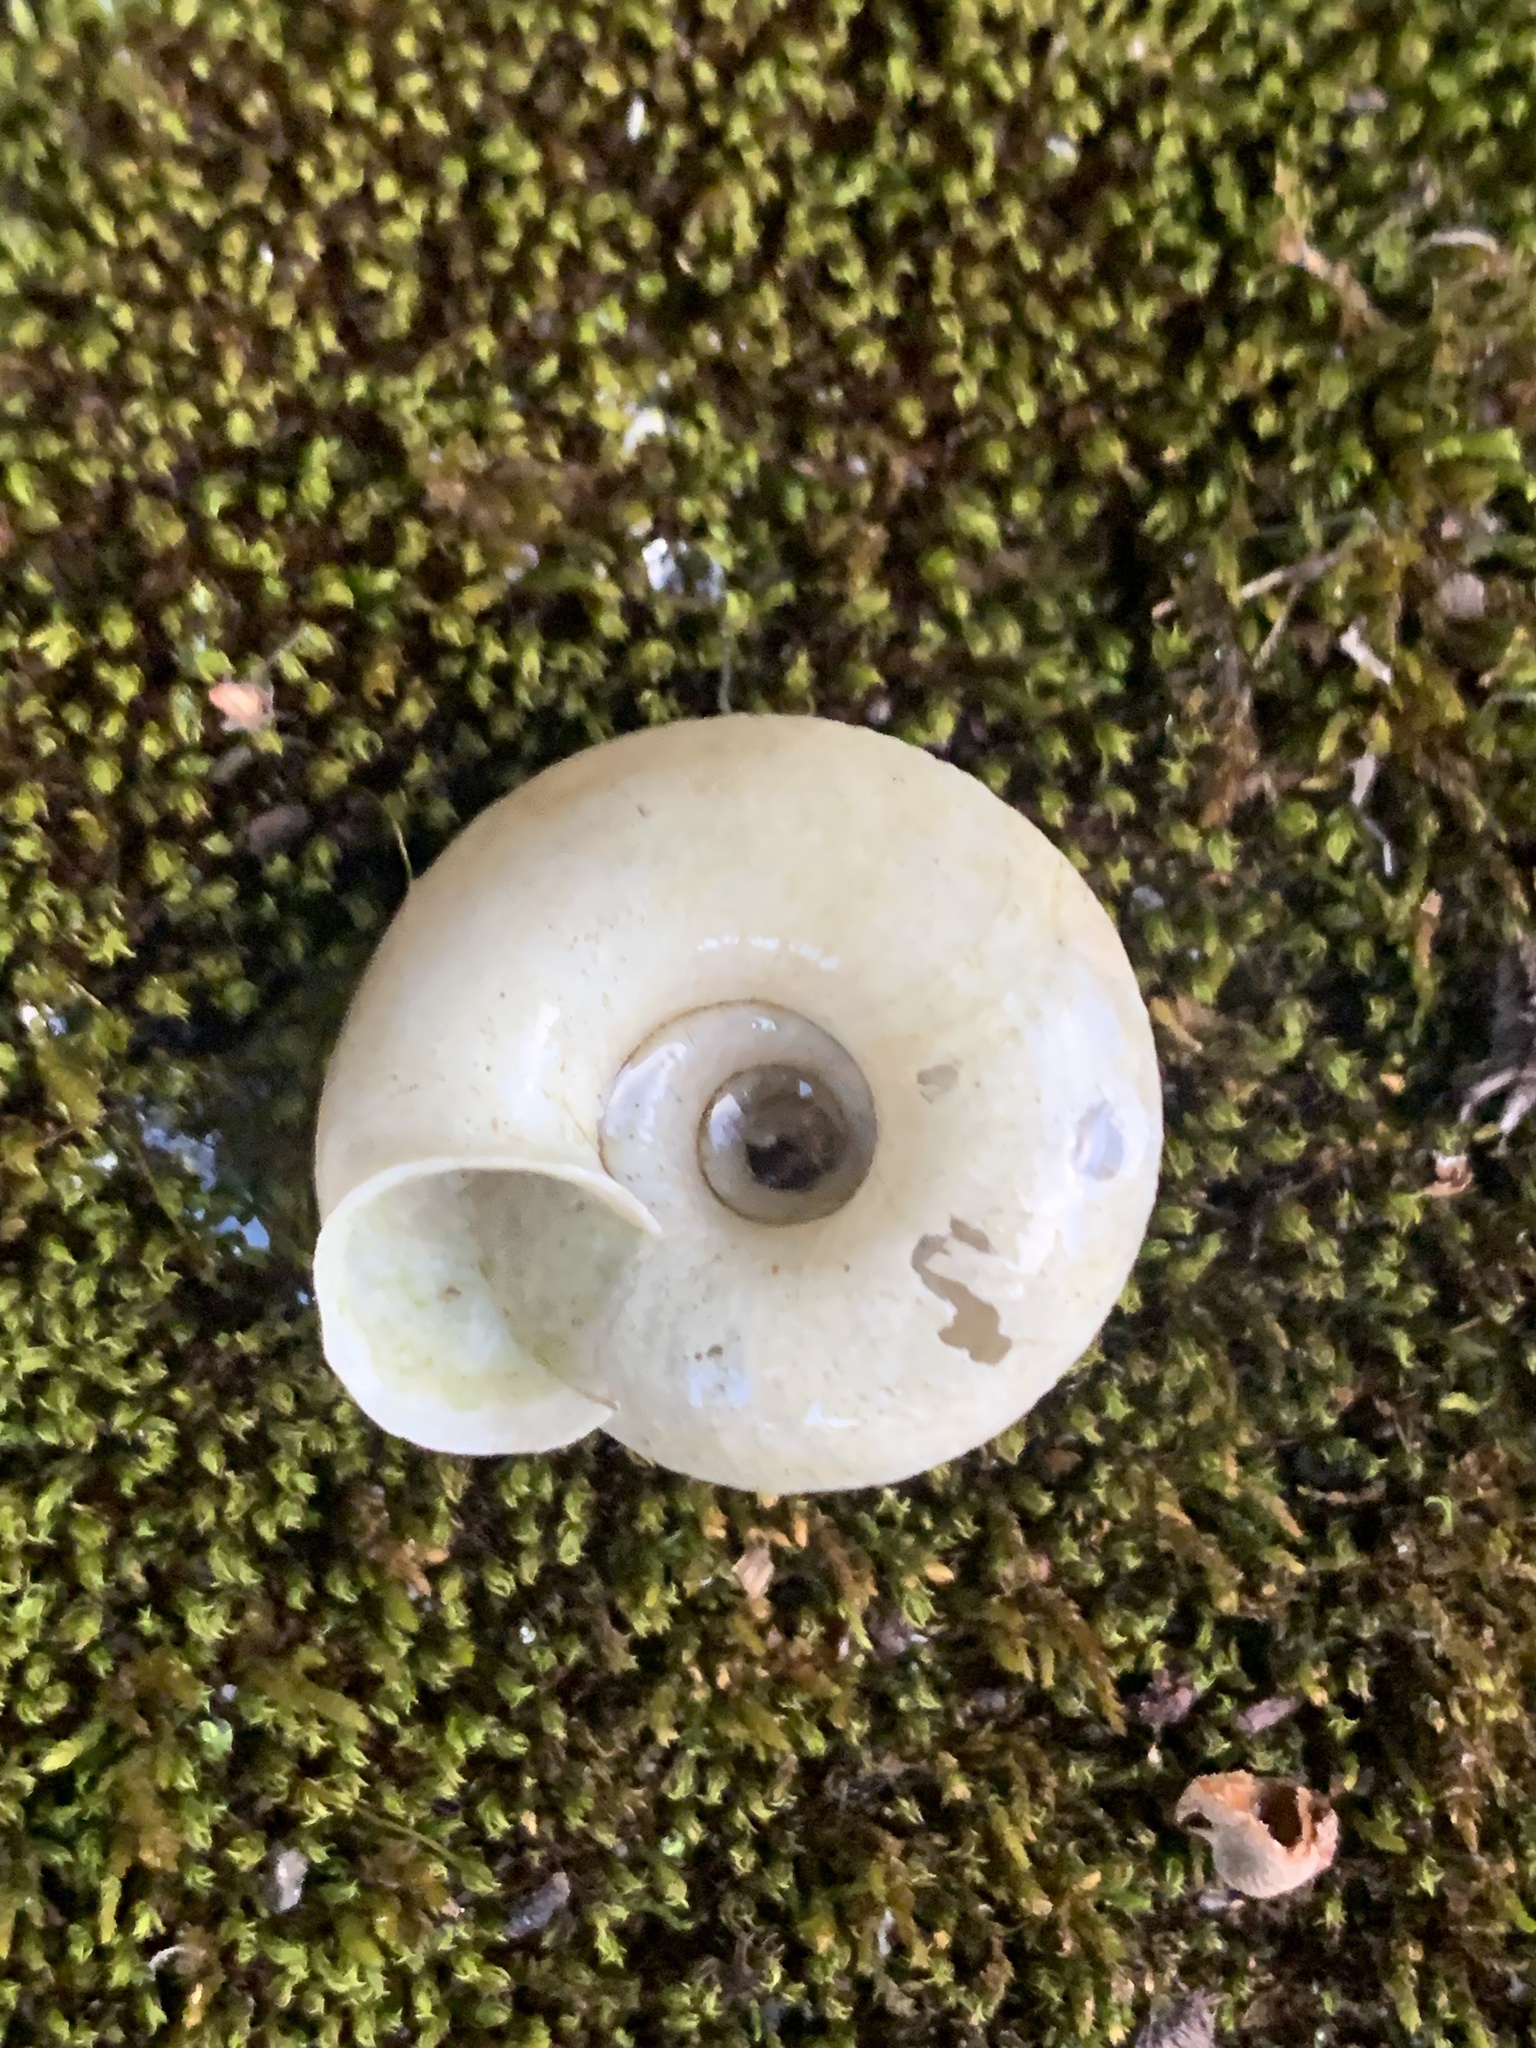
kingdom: Animalia
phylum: Mollusca
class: Gastropoda
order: Stylommatophora
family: Camaenidae
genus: Plectotropis
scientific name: Plectotropis vulgivaga
